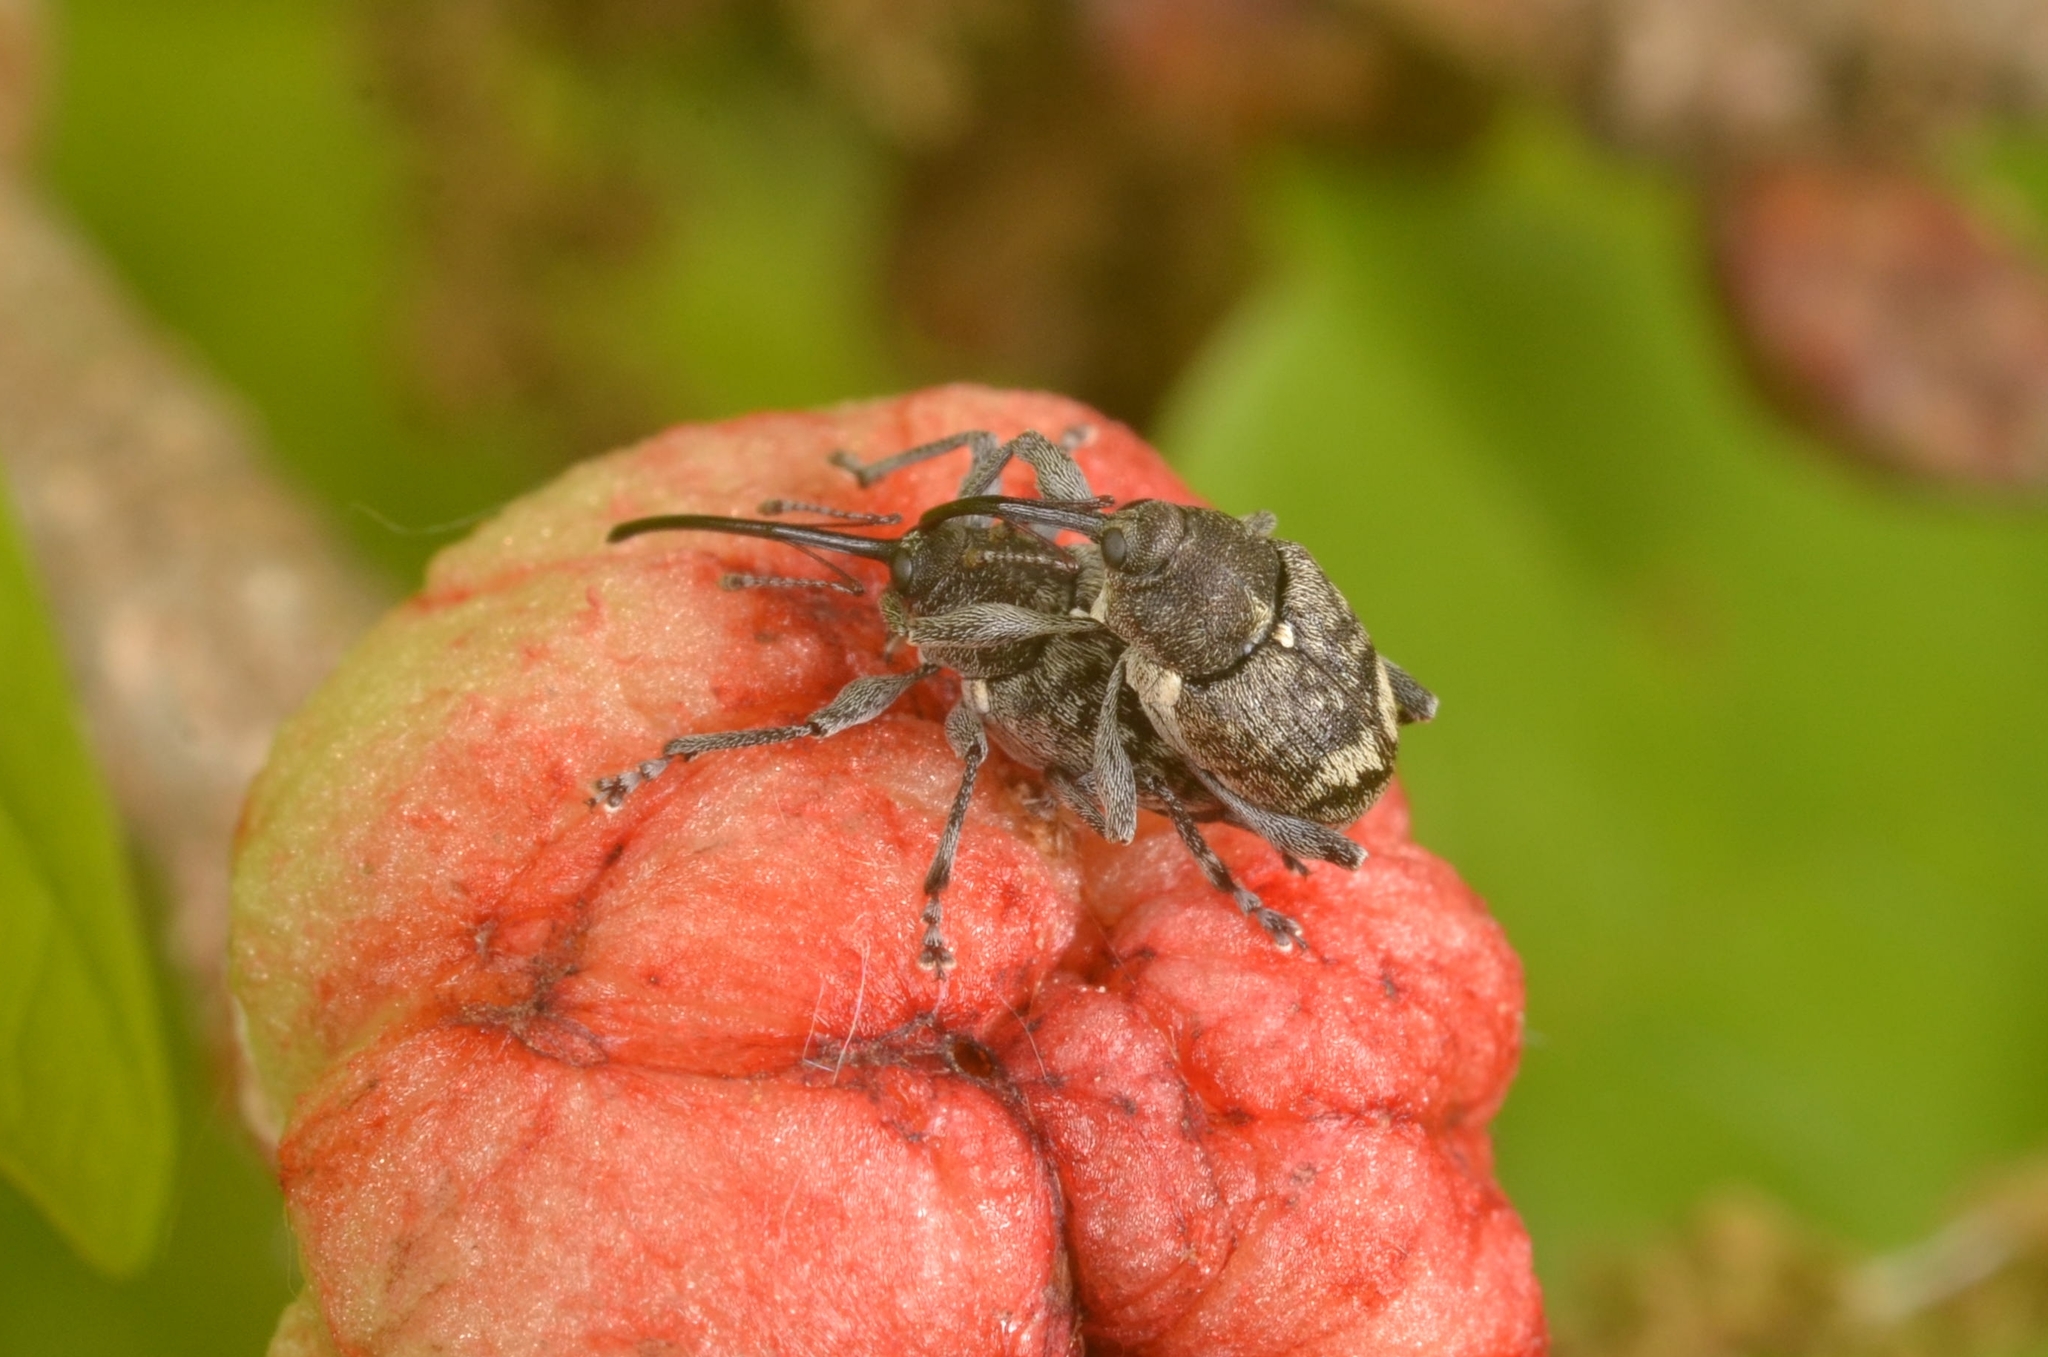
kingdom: Animalia
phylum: Arthropoda
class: Insecta
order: Coleoptera
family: Curculionidae
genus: Curculio
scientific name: Curculio villosus
